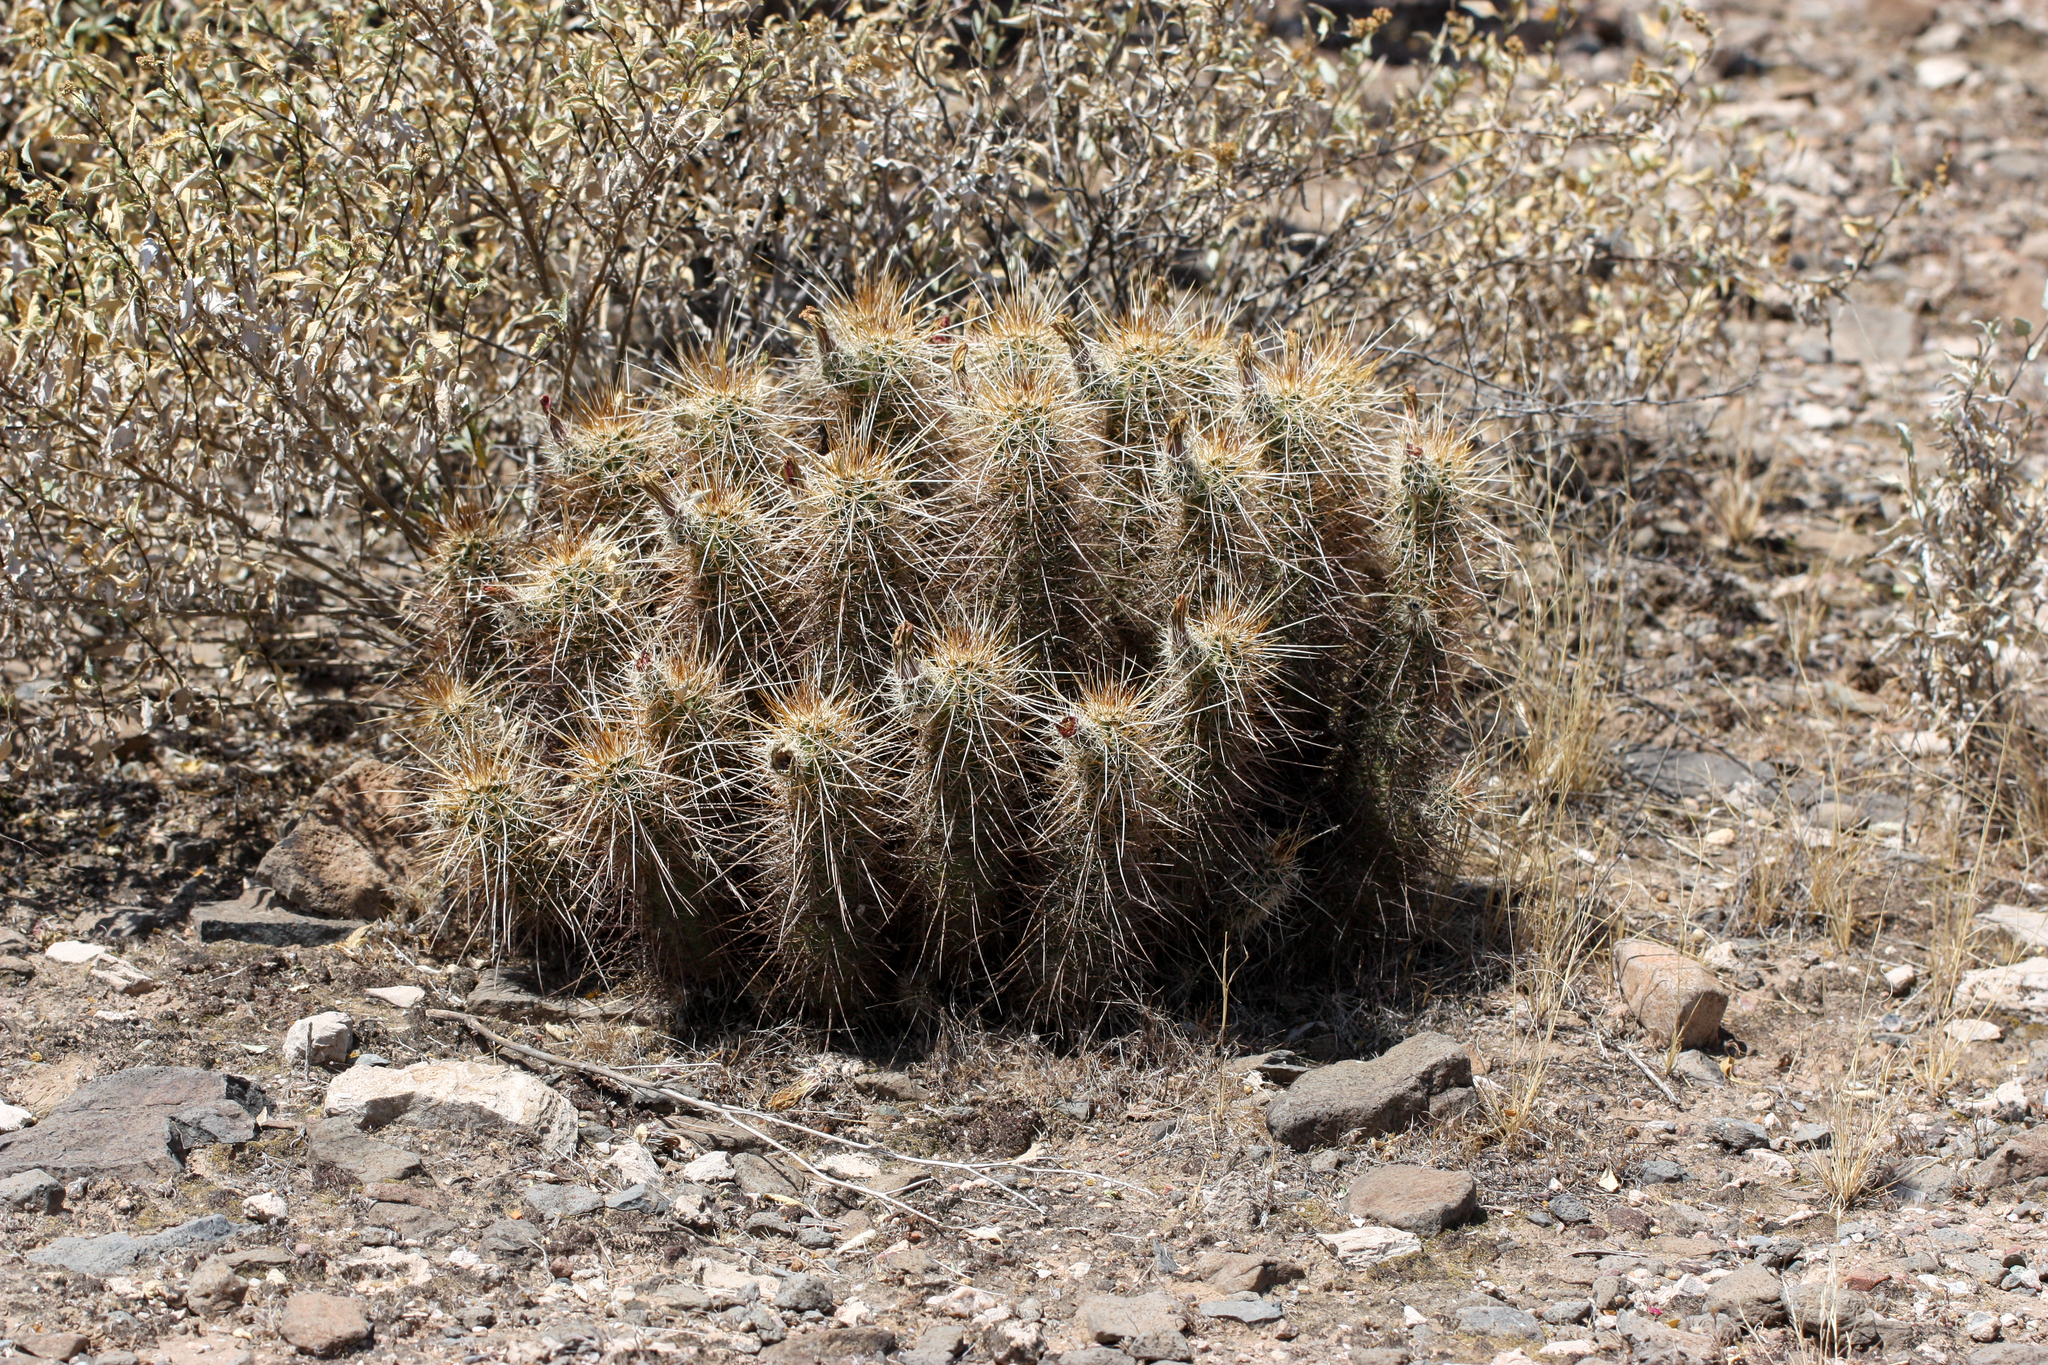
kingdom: Plantae
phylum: Tracheophyta
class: Magnoliopsida
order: Caryophyllales
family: Cactaceae
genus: Echinocereus
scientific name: Echinocereus engelmannii
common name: Engelmann's hedgehog cactus
